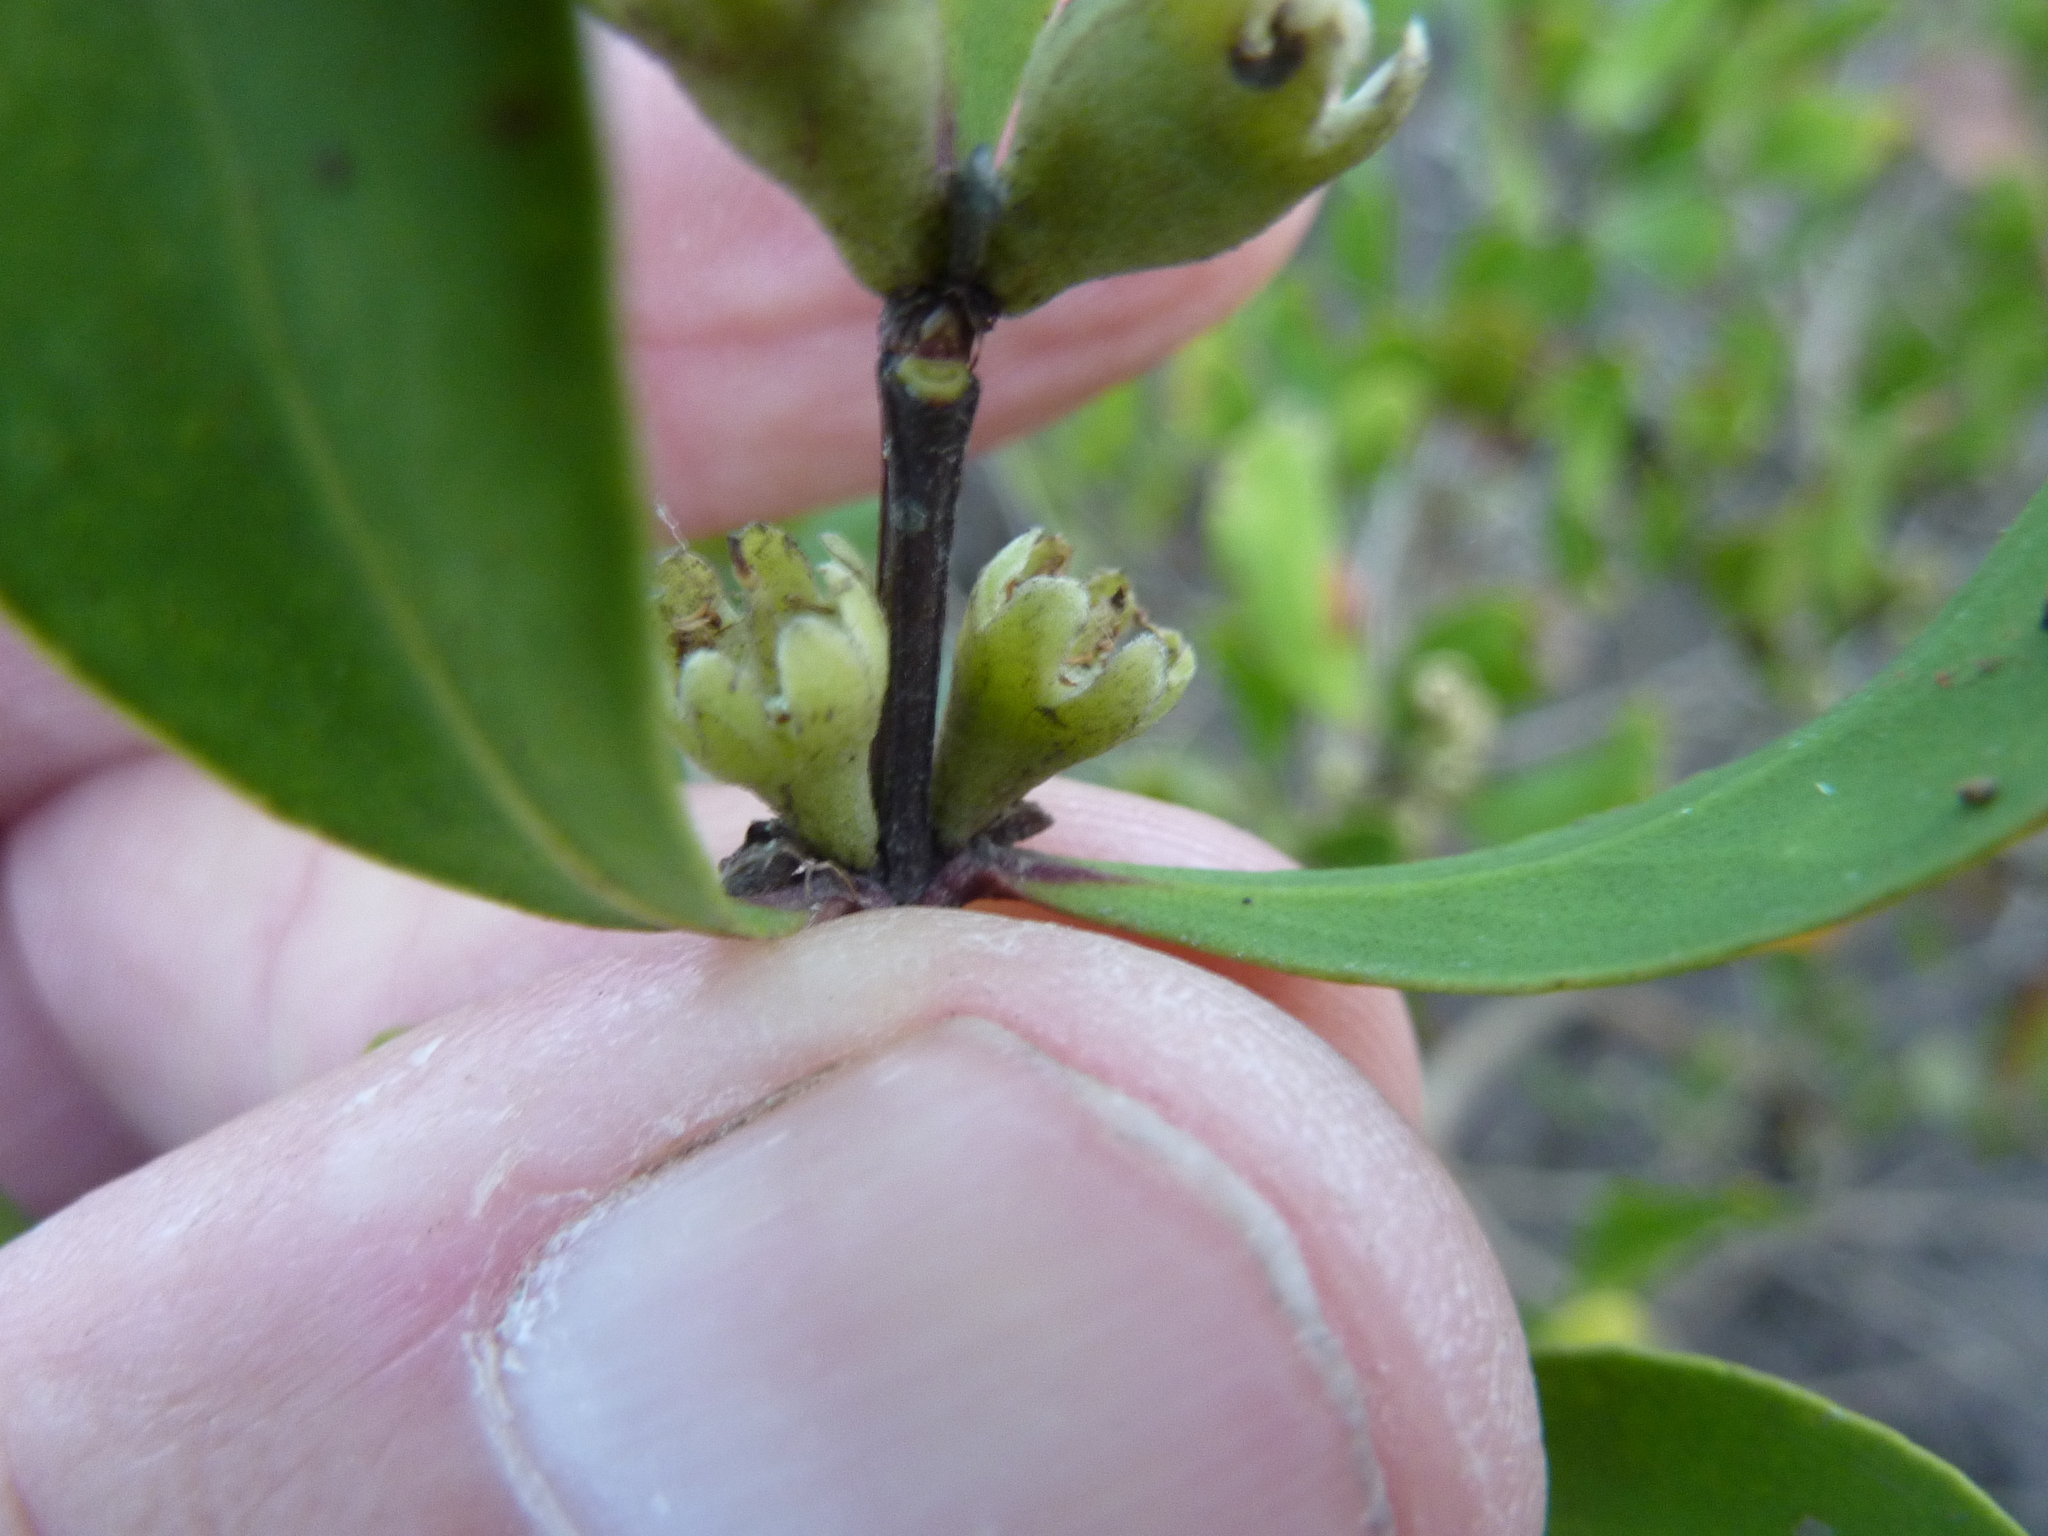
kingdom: Plantae
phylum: Tracheophyta
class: Magnoliopsida
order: Myrtales
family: Myrtaceae
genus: Osbornia
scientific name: Osbornia octodonta
